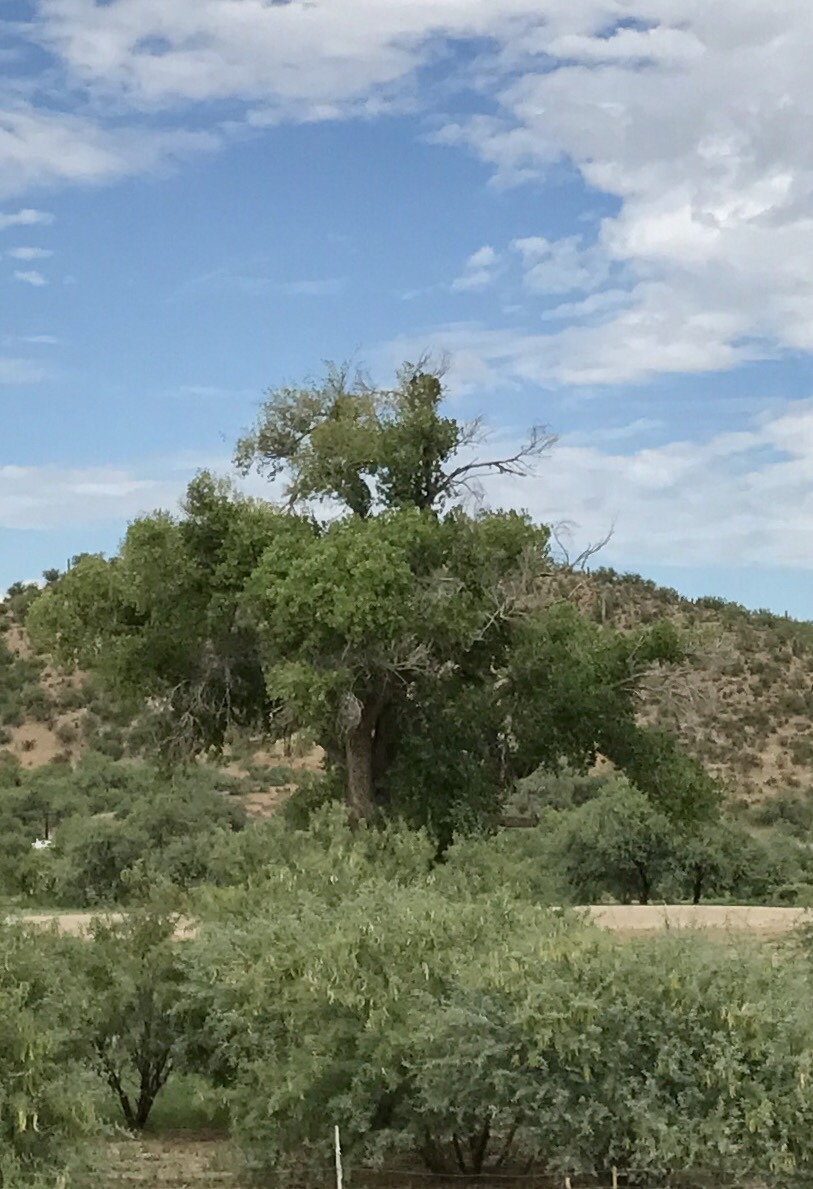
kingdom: Plantae
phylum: Tracheophyta
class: Magnoliopsida
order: Malpighiales
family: Salicaceae
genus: Populus
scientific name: Populus fremontii
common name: Fremont's cottonwood
